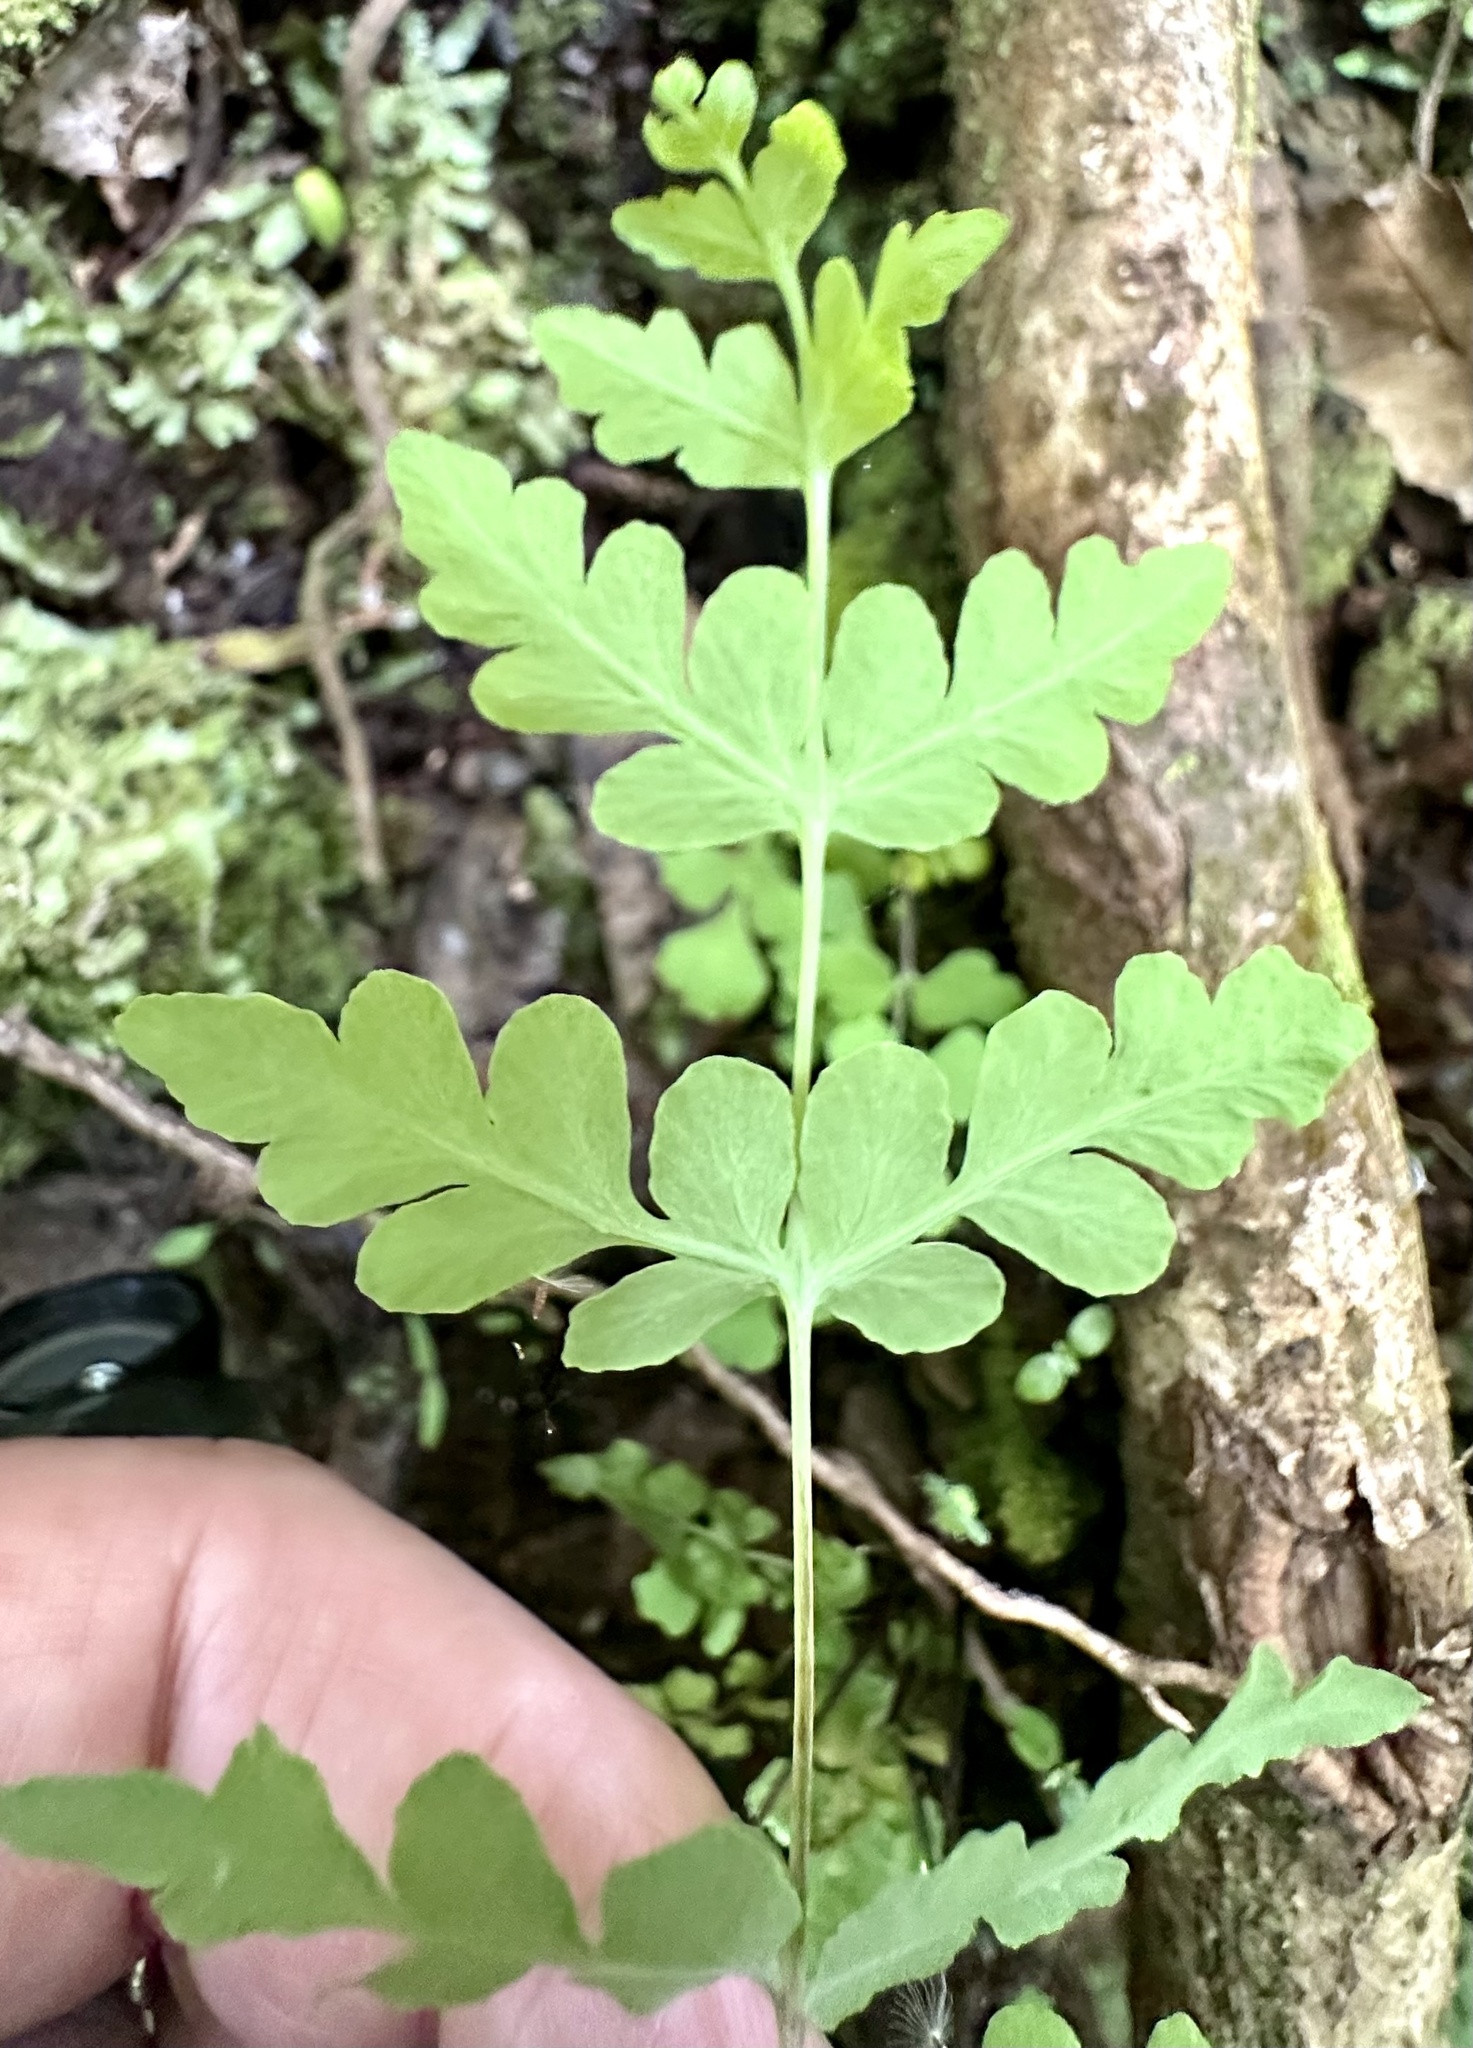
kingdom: Plantae
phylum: Tracheophyta
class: Polypodiopsida
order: Polypodiales
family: Dennstaedtiaceae
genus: Histiopteris
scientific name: Histiopteris incisa
